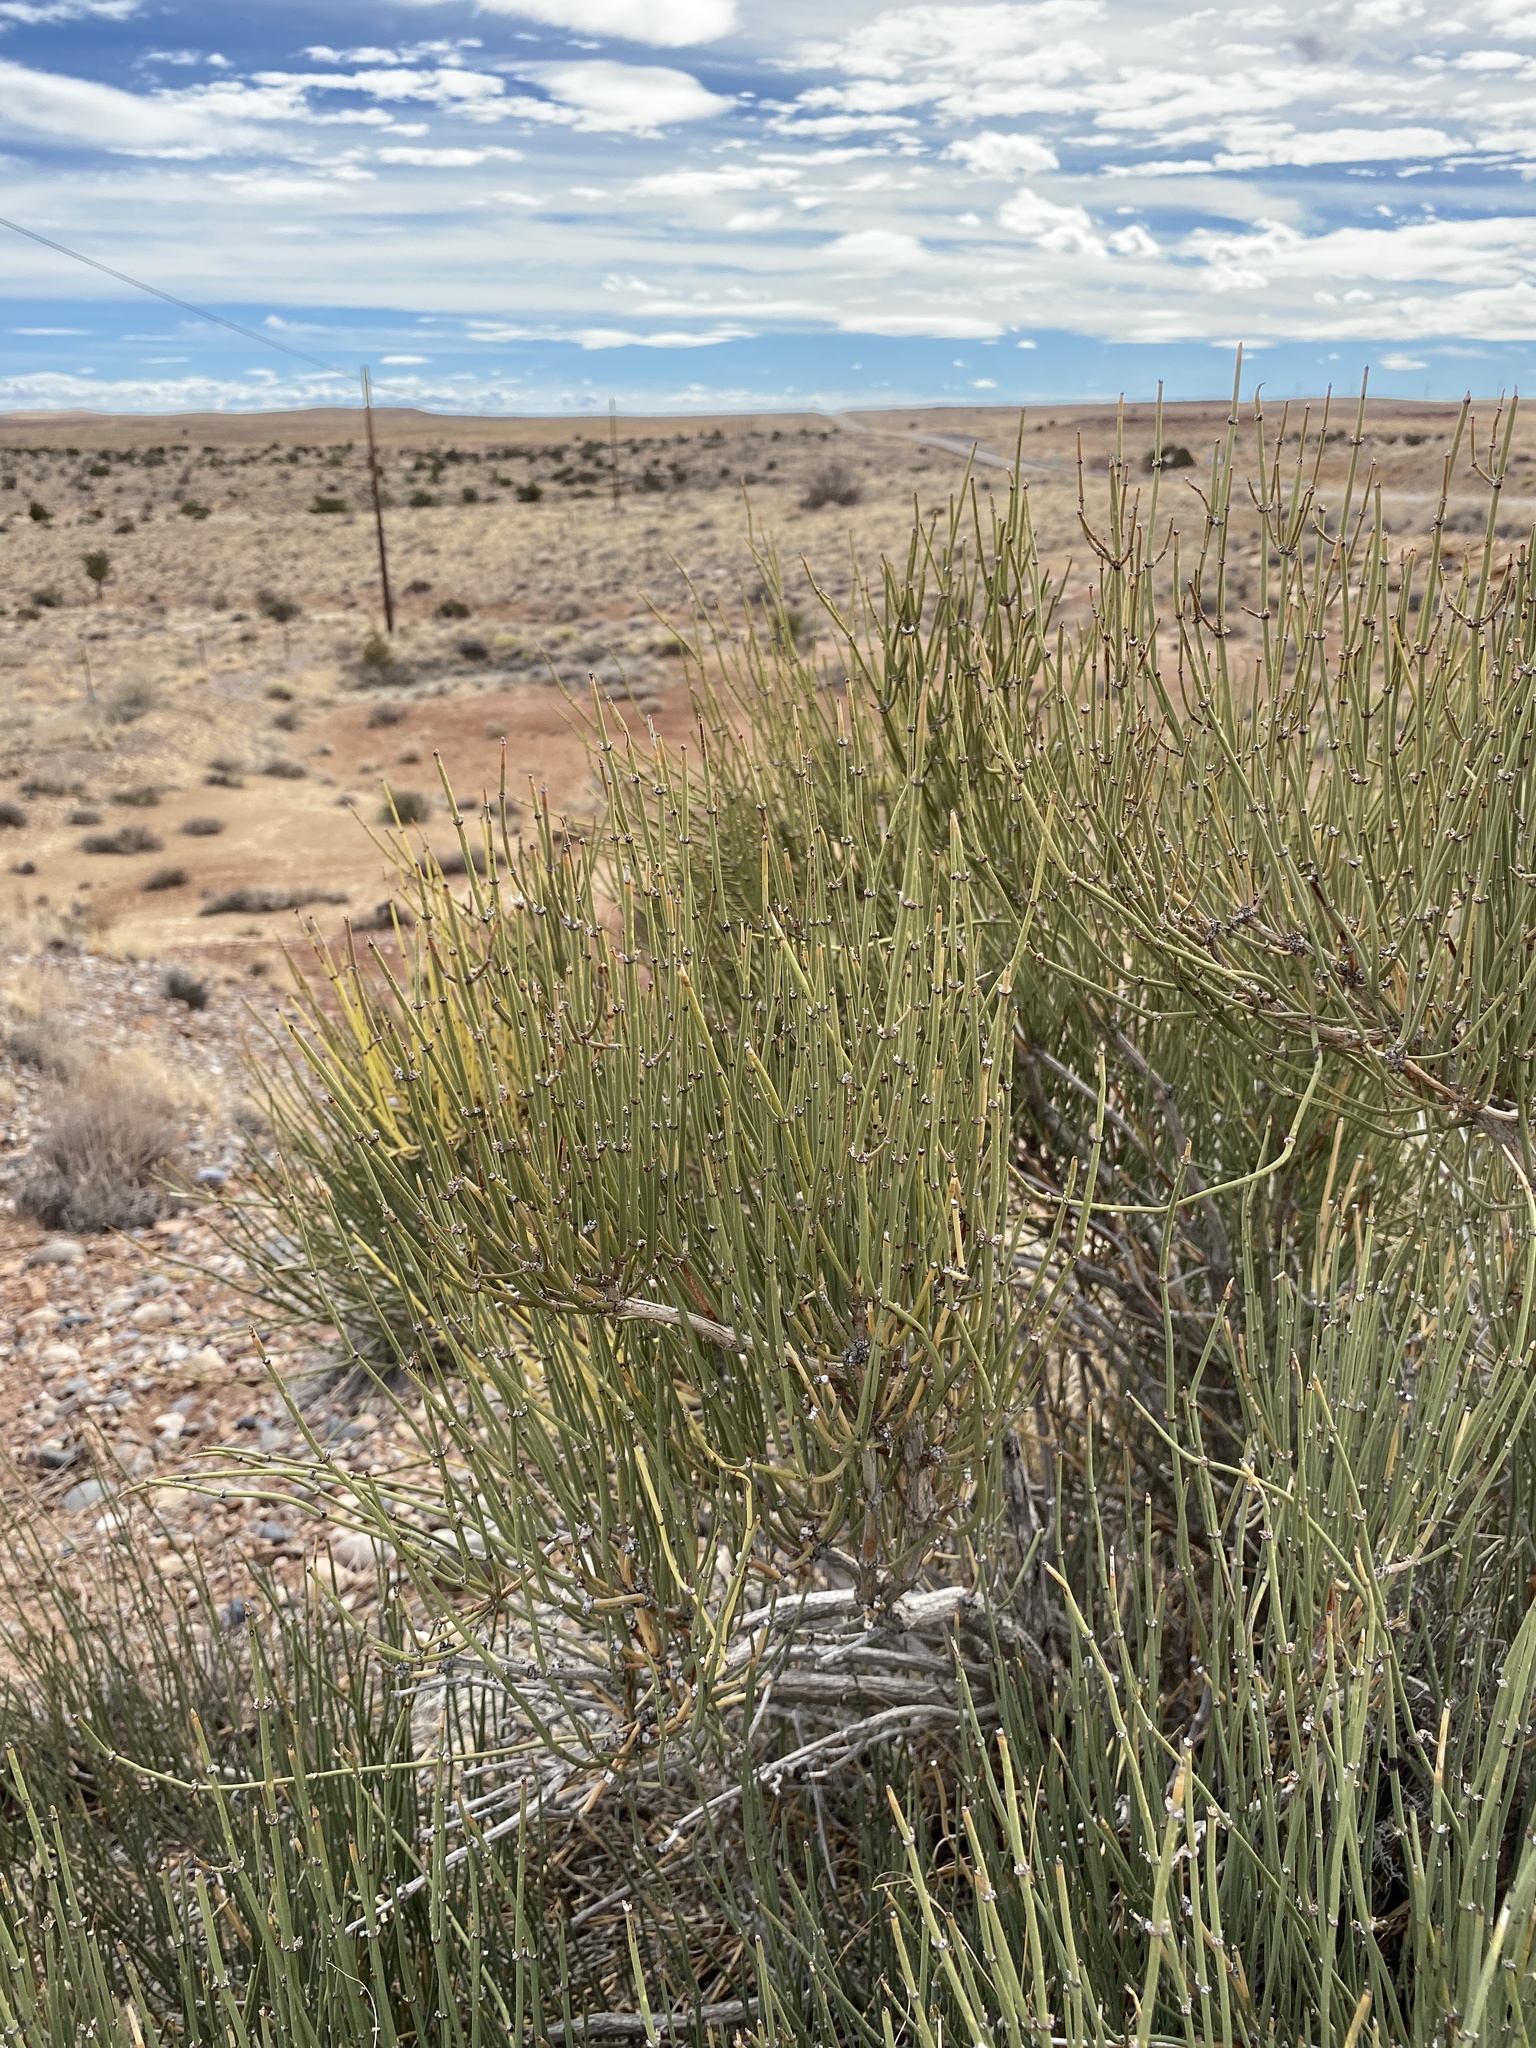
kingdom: Plantae
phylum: Tracheophyta
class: Gnetopsida
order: Ephedrales
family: Ephedraceae
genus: Ephedra
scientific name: Ephedra viridis
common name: Green ephedra
